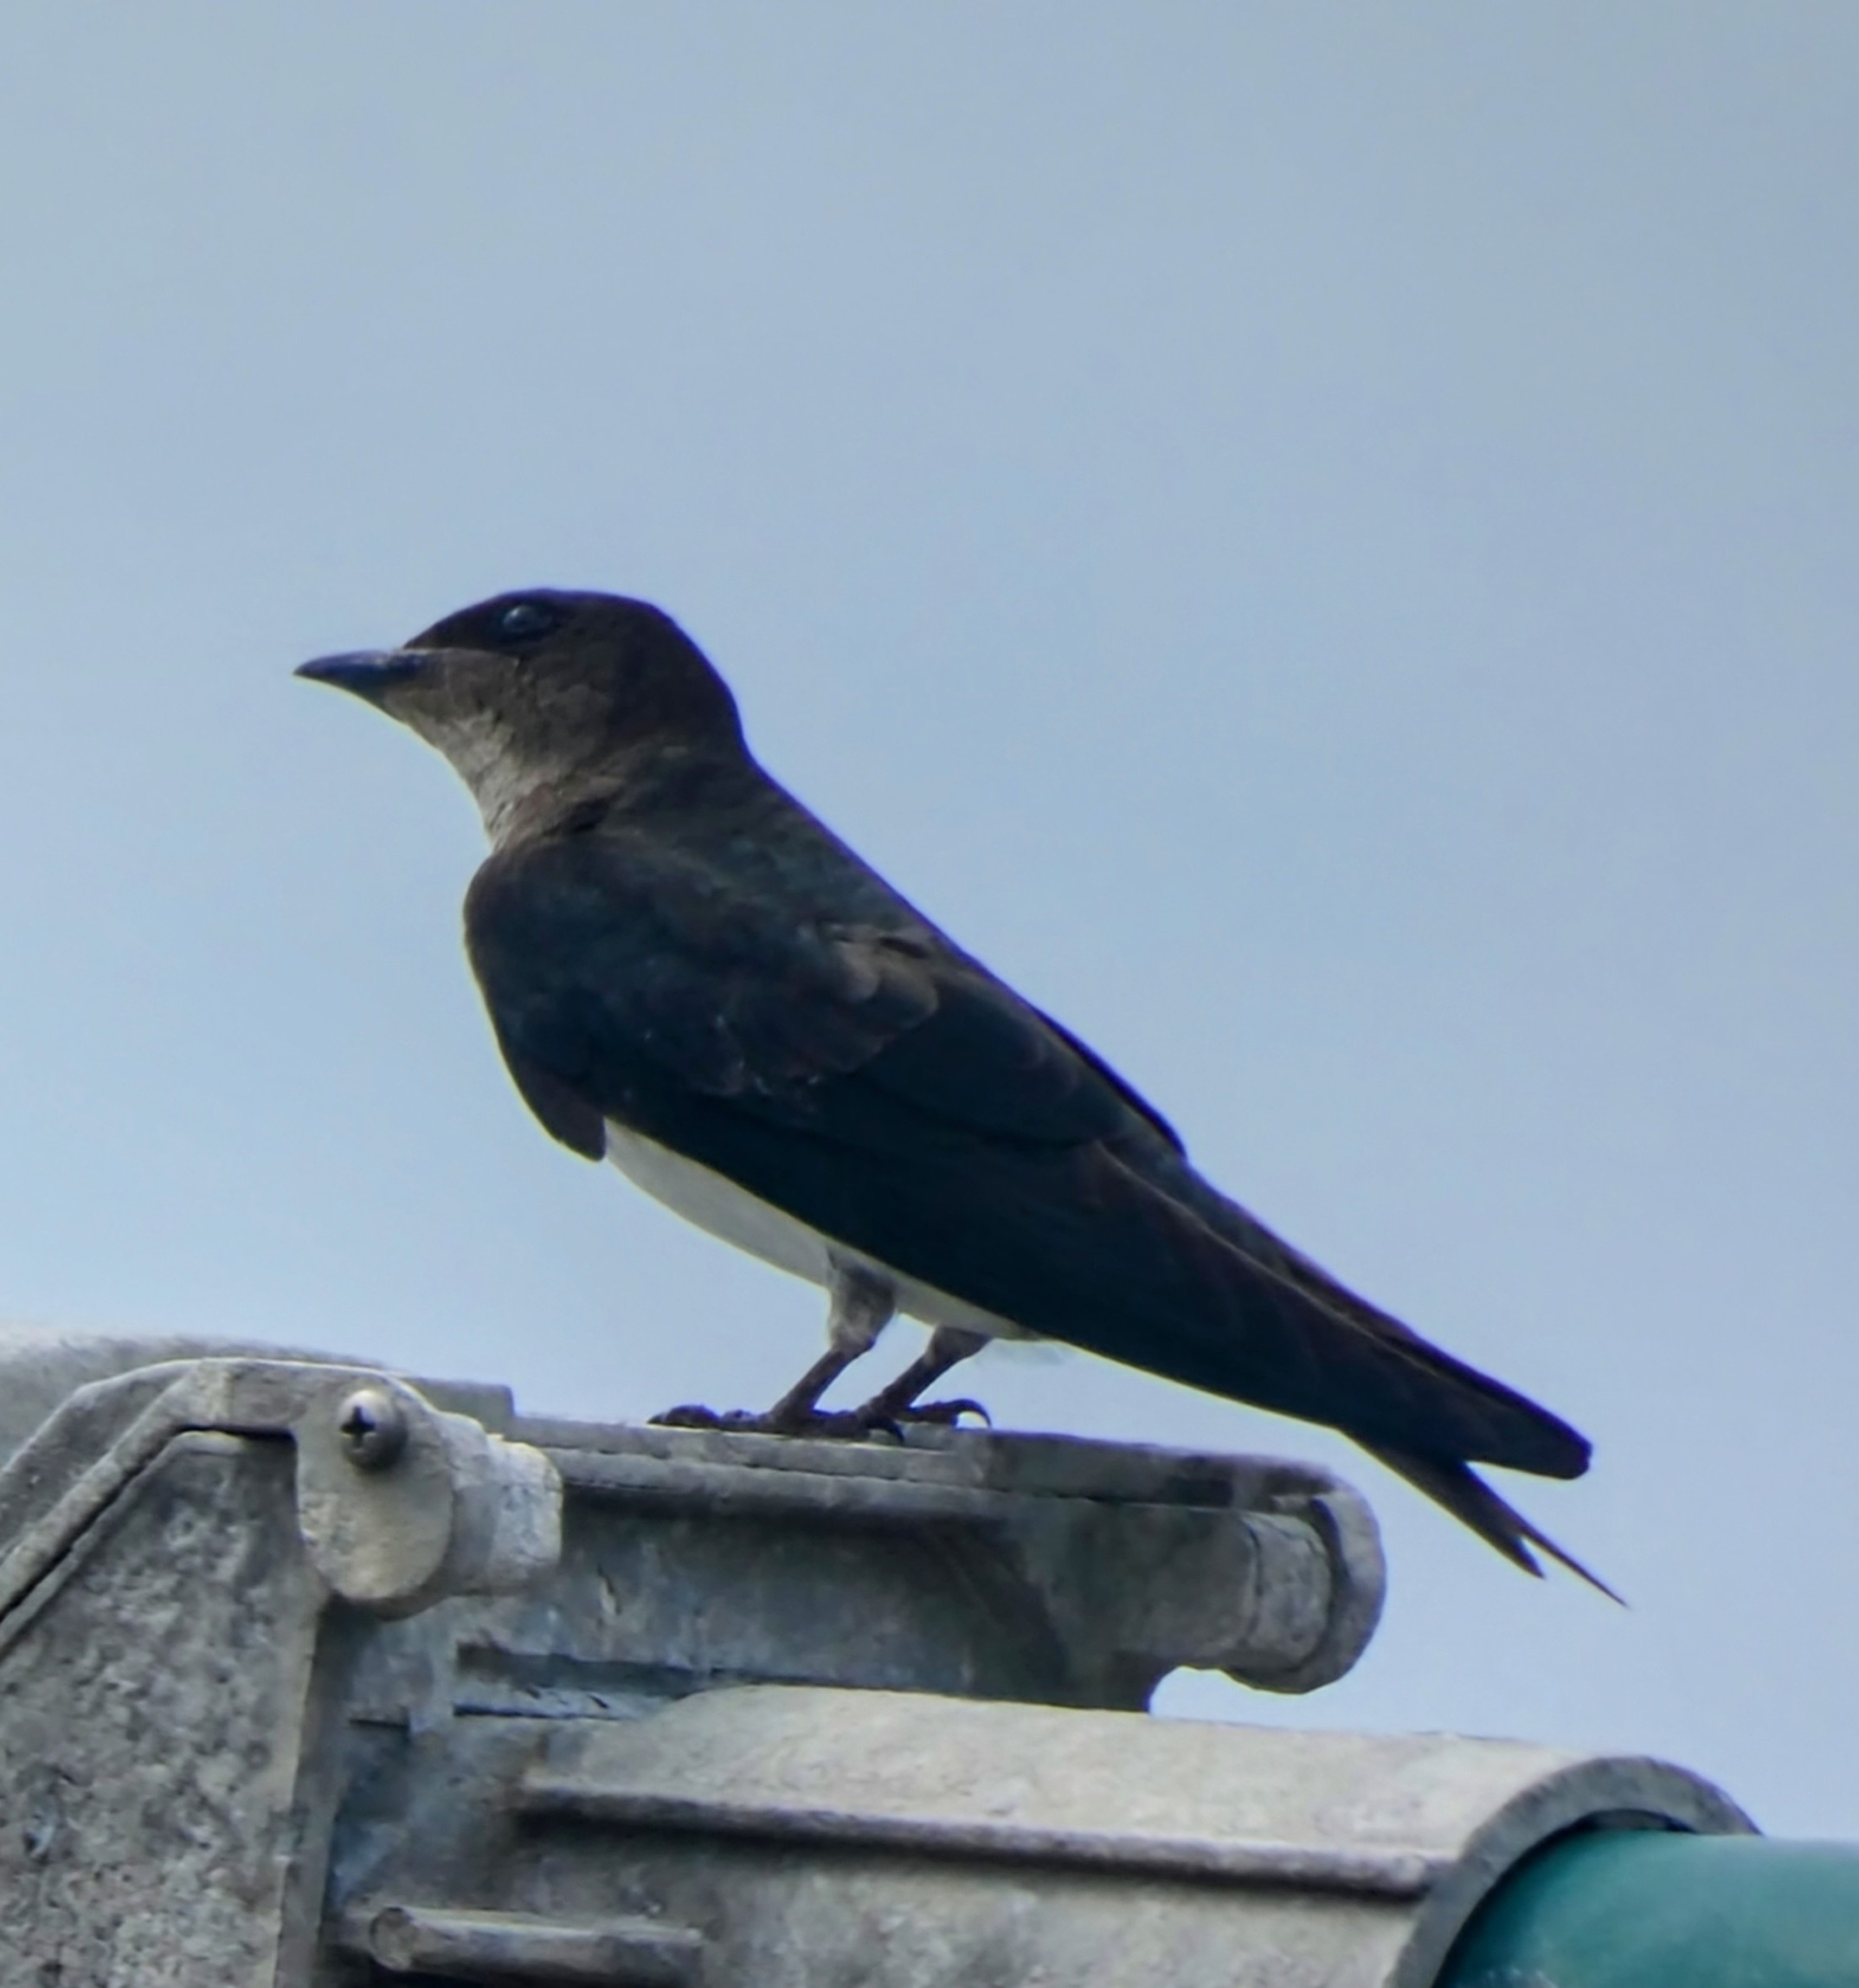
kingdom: Animalia
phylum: Chordata
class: Aves
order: Passeriformes
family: Hirundinidae
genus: Progne
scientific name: Progne chalybea
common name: Grey-breasted martin
